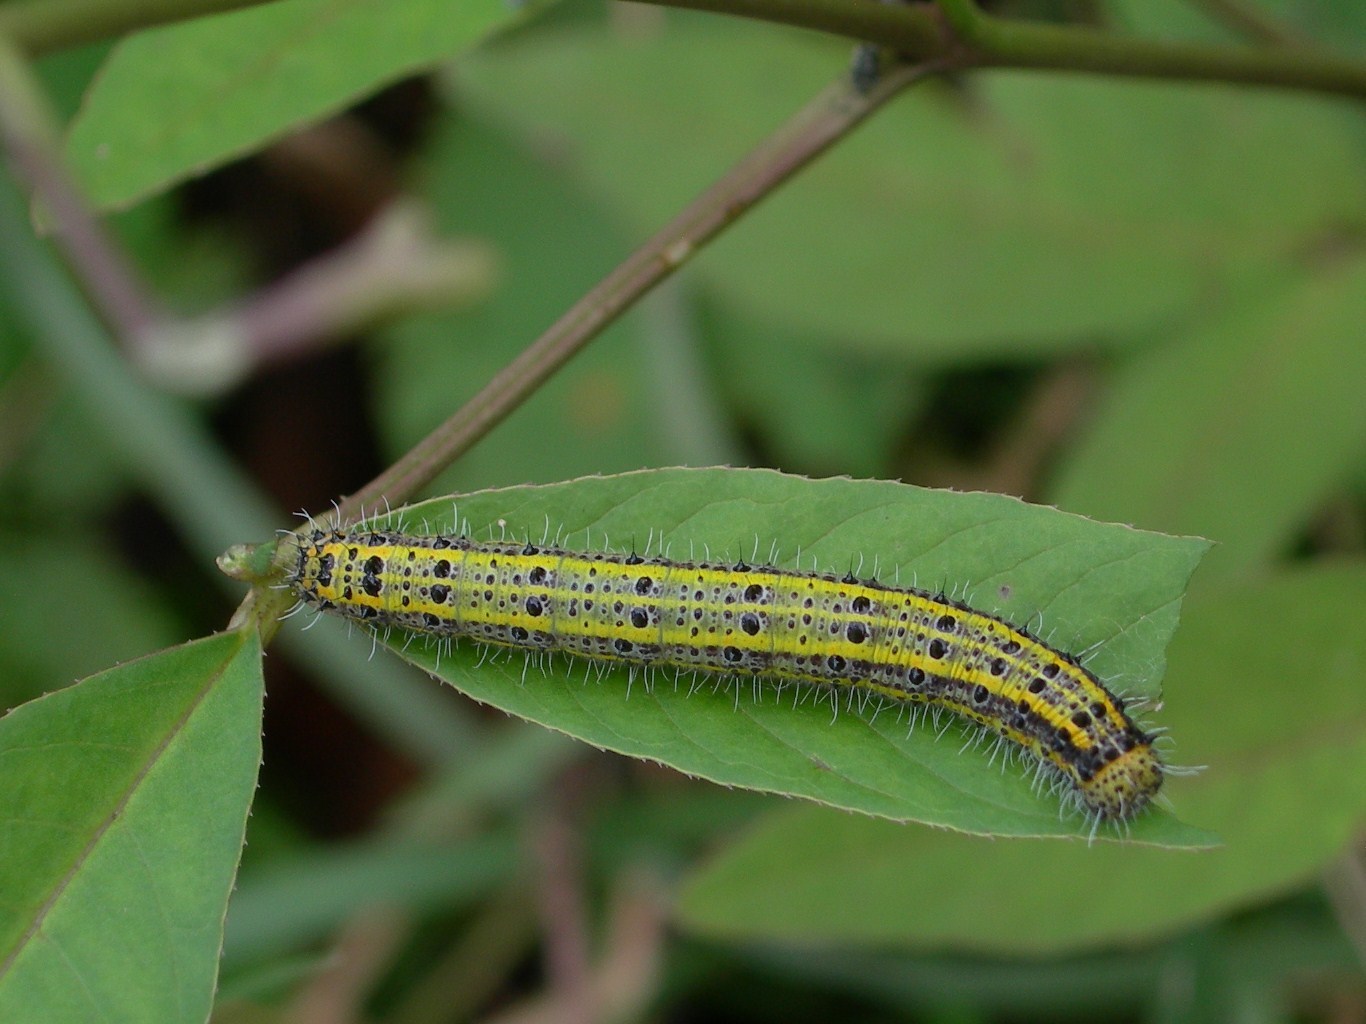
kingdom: Animalia
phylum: Arthropoda
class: Insecta
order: Lepidoptera
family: Pieridae
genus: Ascia
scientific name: Ascia monuste
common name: Great southern white
